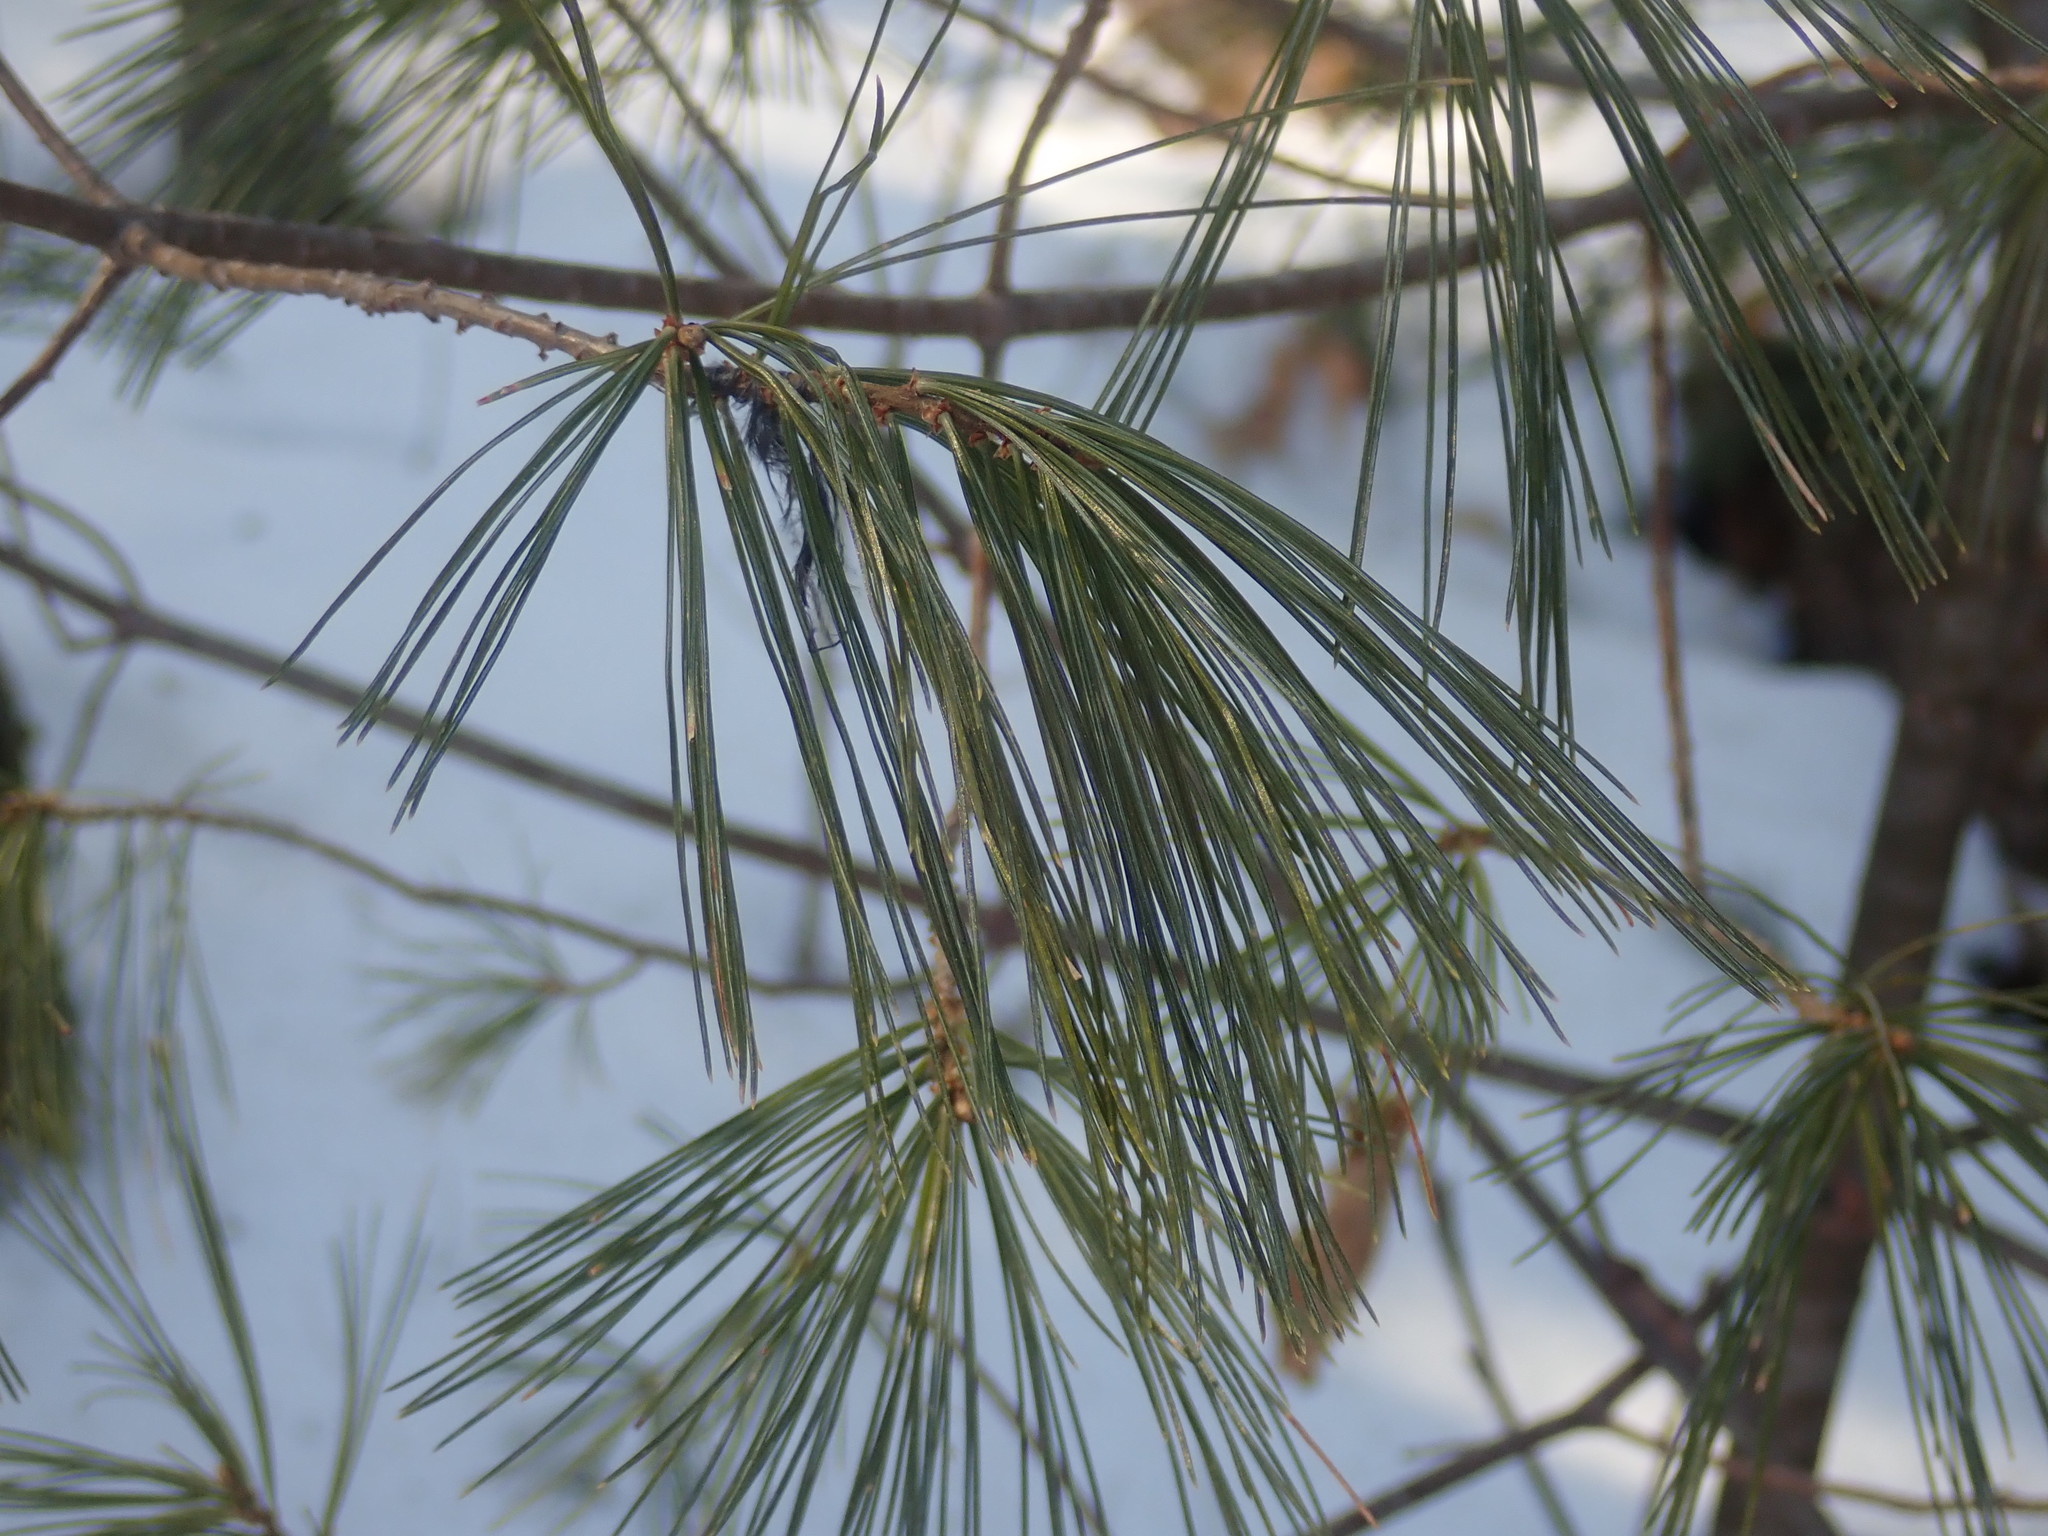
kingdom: Plantae
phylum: Tracheophyta
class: Pinopsida
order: Pinales
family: Pinaceae
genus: Pinus
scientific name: Pinus strobus
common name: Weymouth pine
